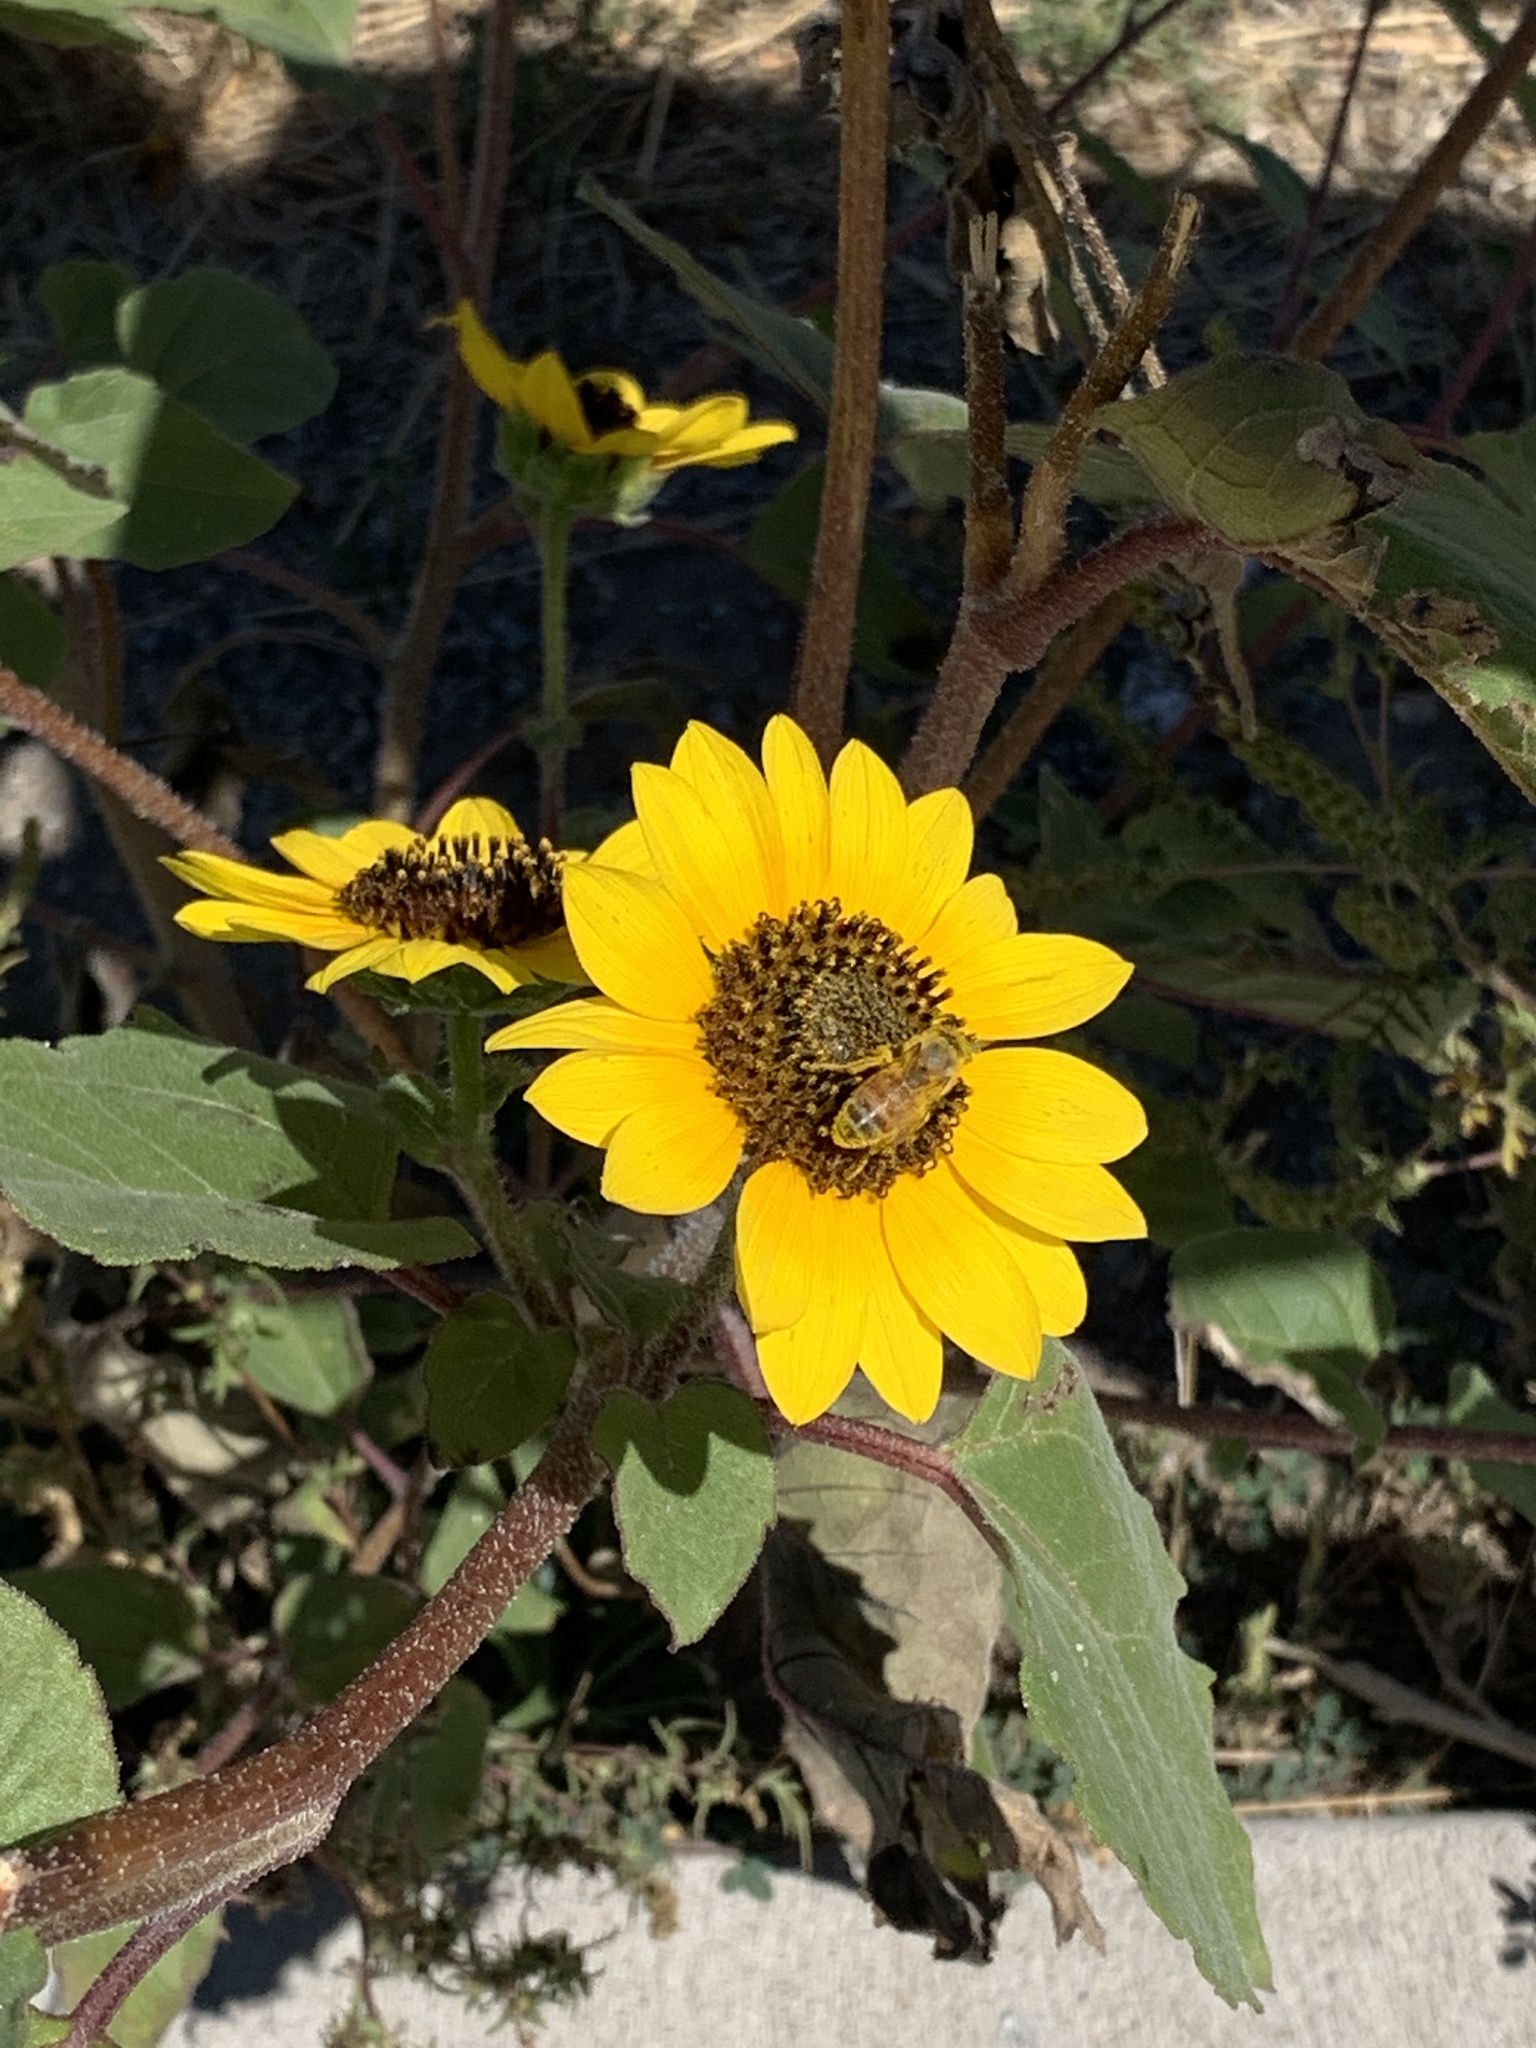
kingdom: Plantae
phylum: Tracheophyta
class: Magnoliopsida
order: Asterales
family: Asteraceae
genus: Helianthus
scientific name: Helianthus annuus
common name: Sunflower
